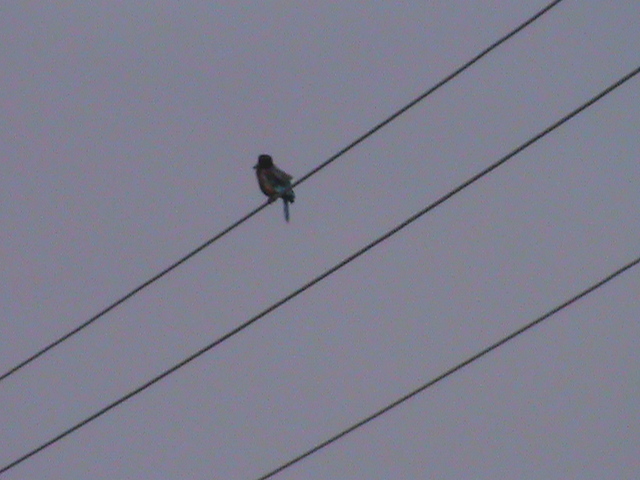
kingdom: Animalia
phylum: Chordata
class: Aves
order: Coraciiformes
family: Alcedinidae
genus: Halcyon
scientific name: Halcyon smyrnensis
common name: White-throated kingfisher
